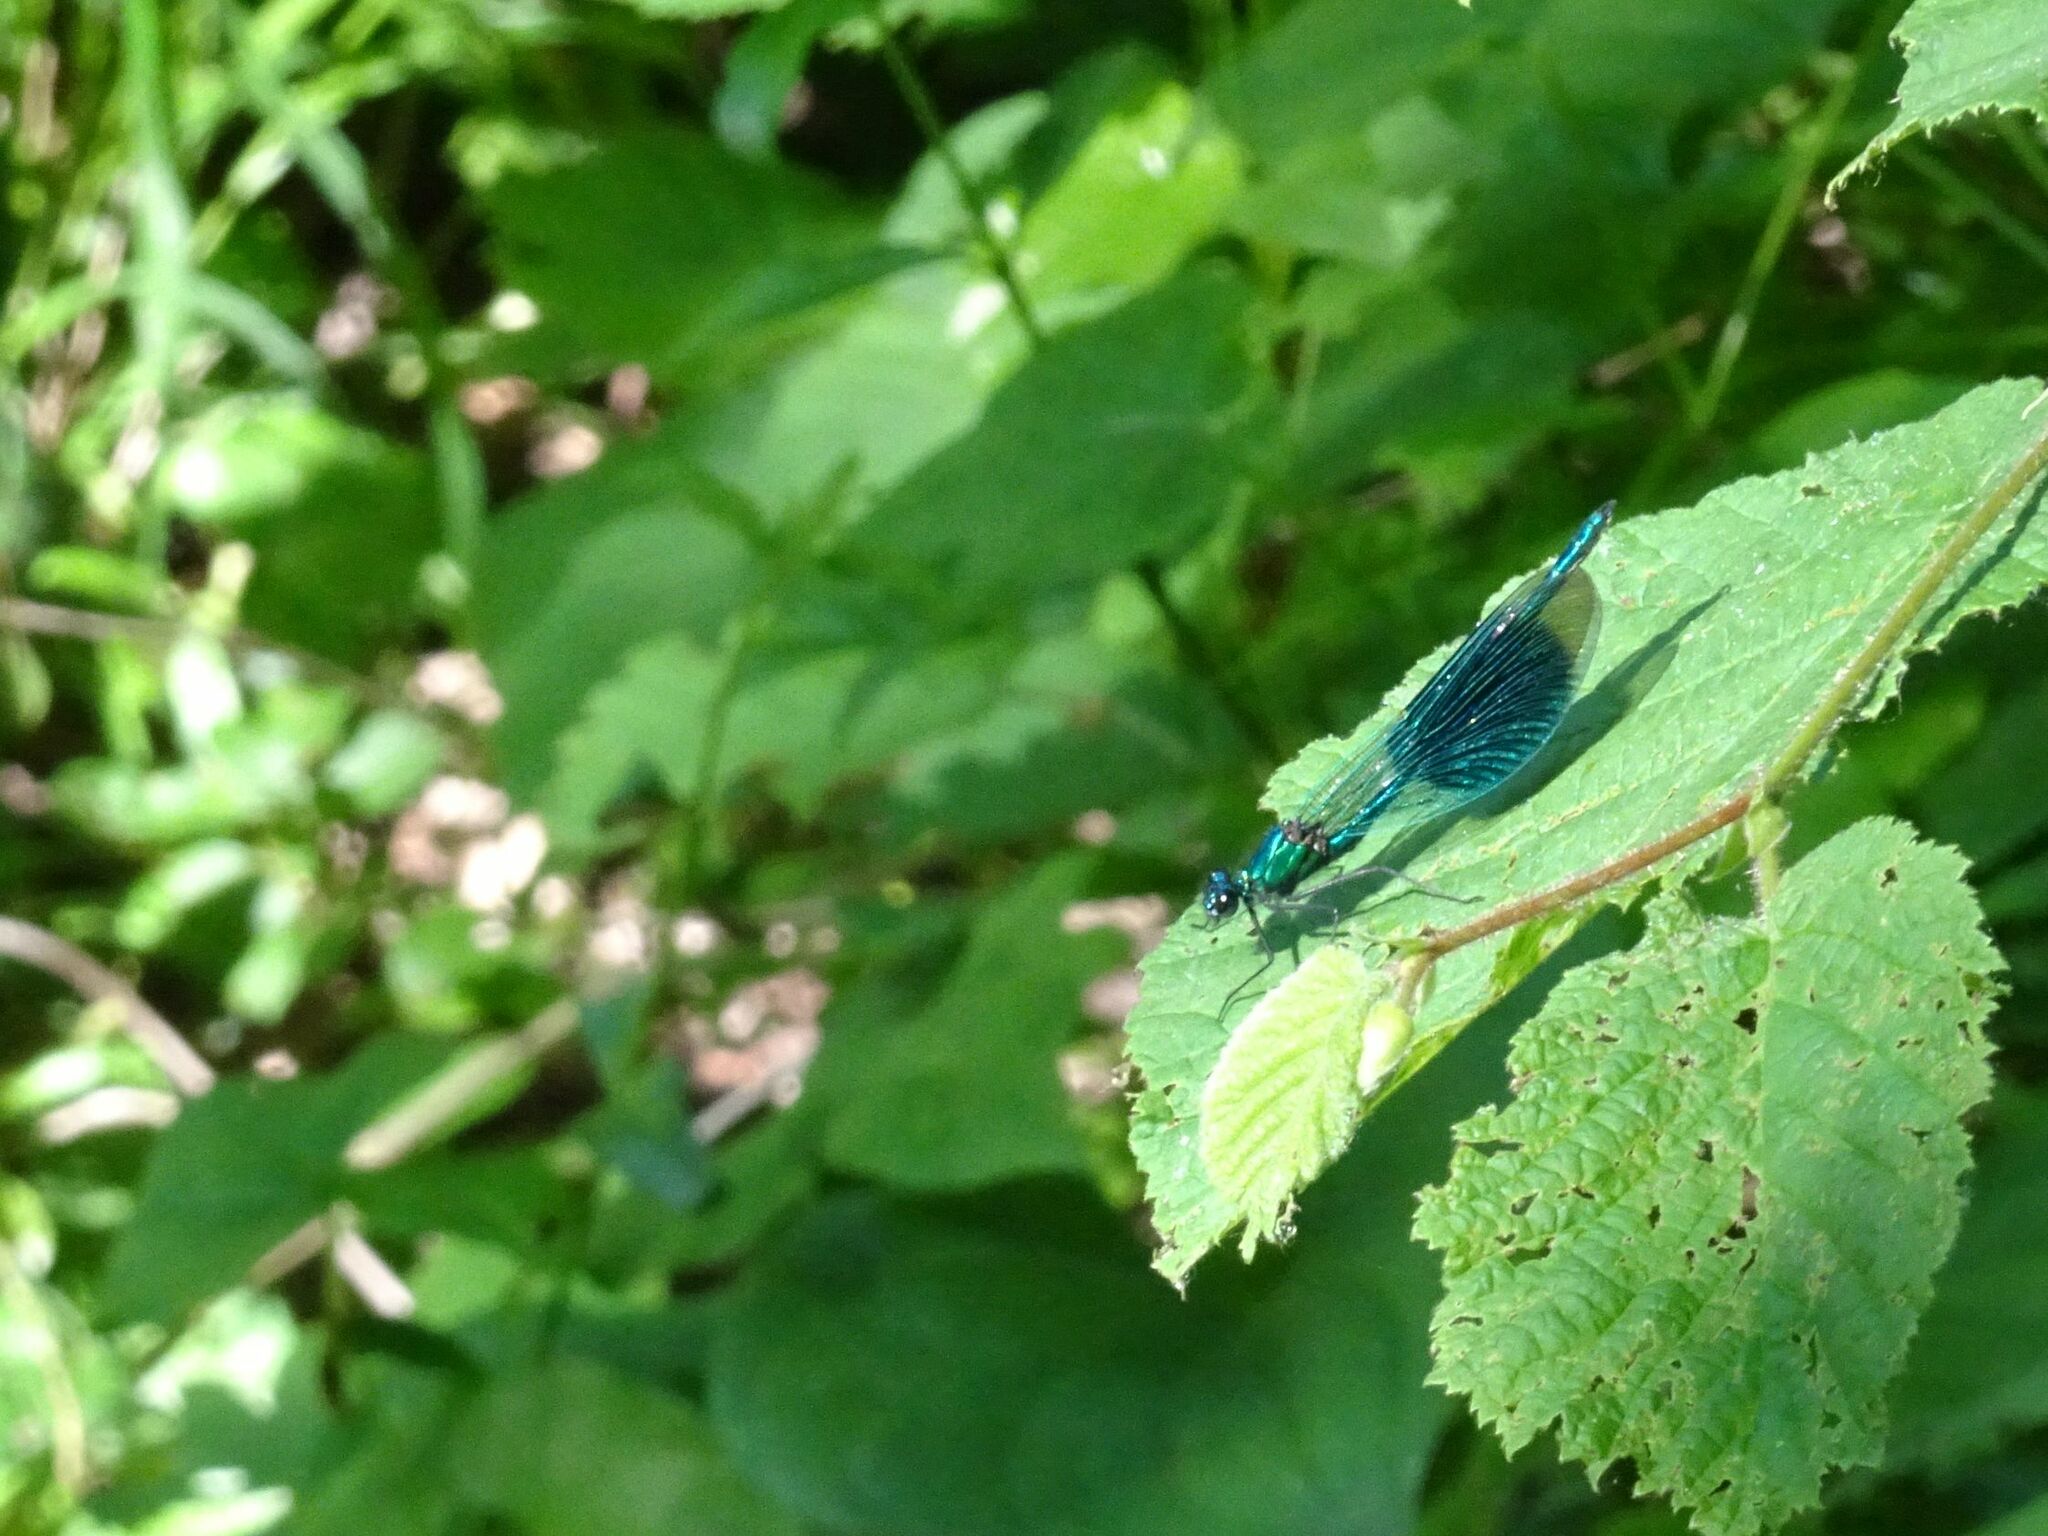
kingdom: Animalia
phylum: Arthropoda
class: Insecta
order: Odonata
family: Calopterygidae
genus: Calopteryx
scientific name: Calopteryx splendens
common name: Banded demoiselle
